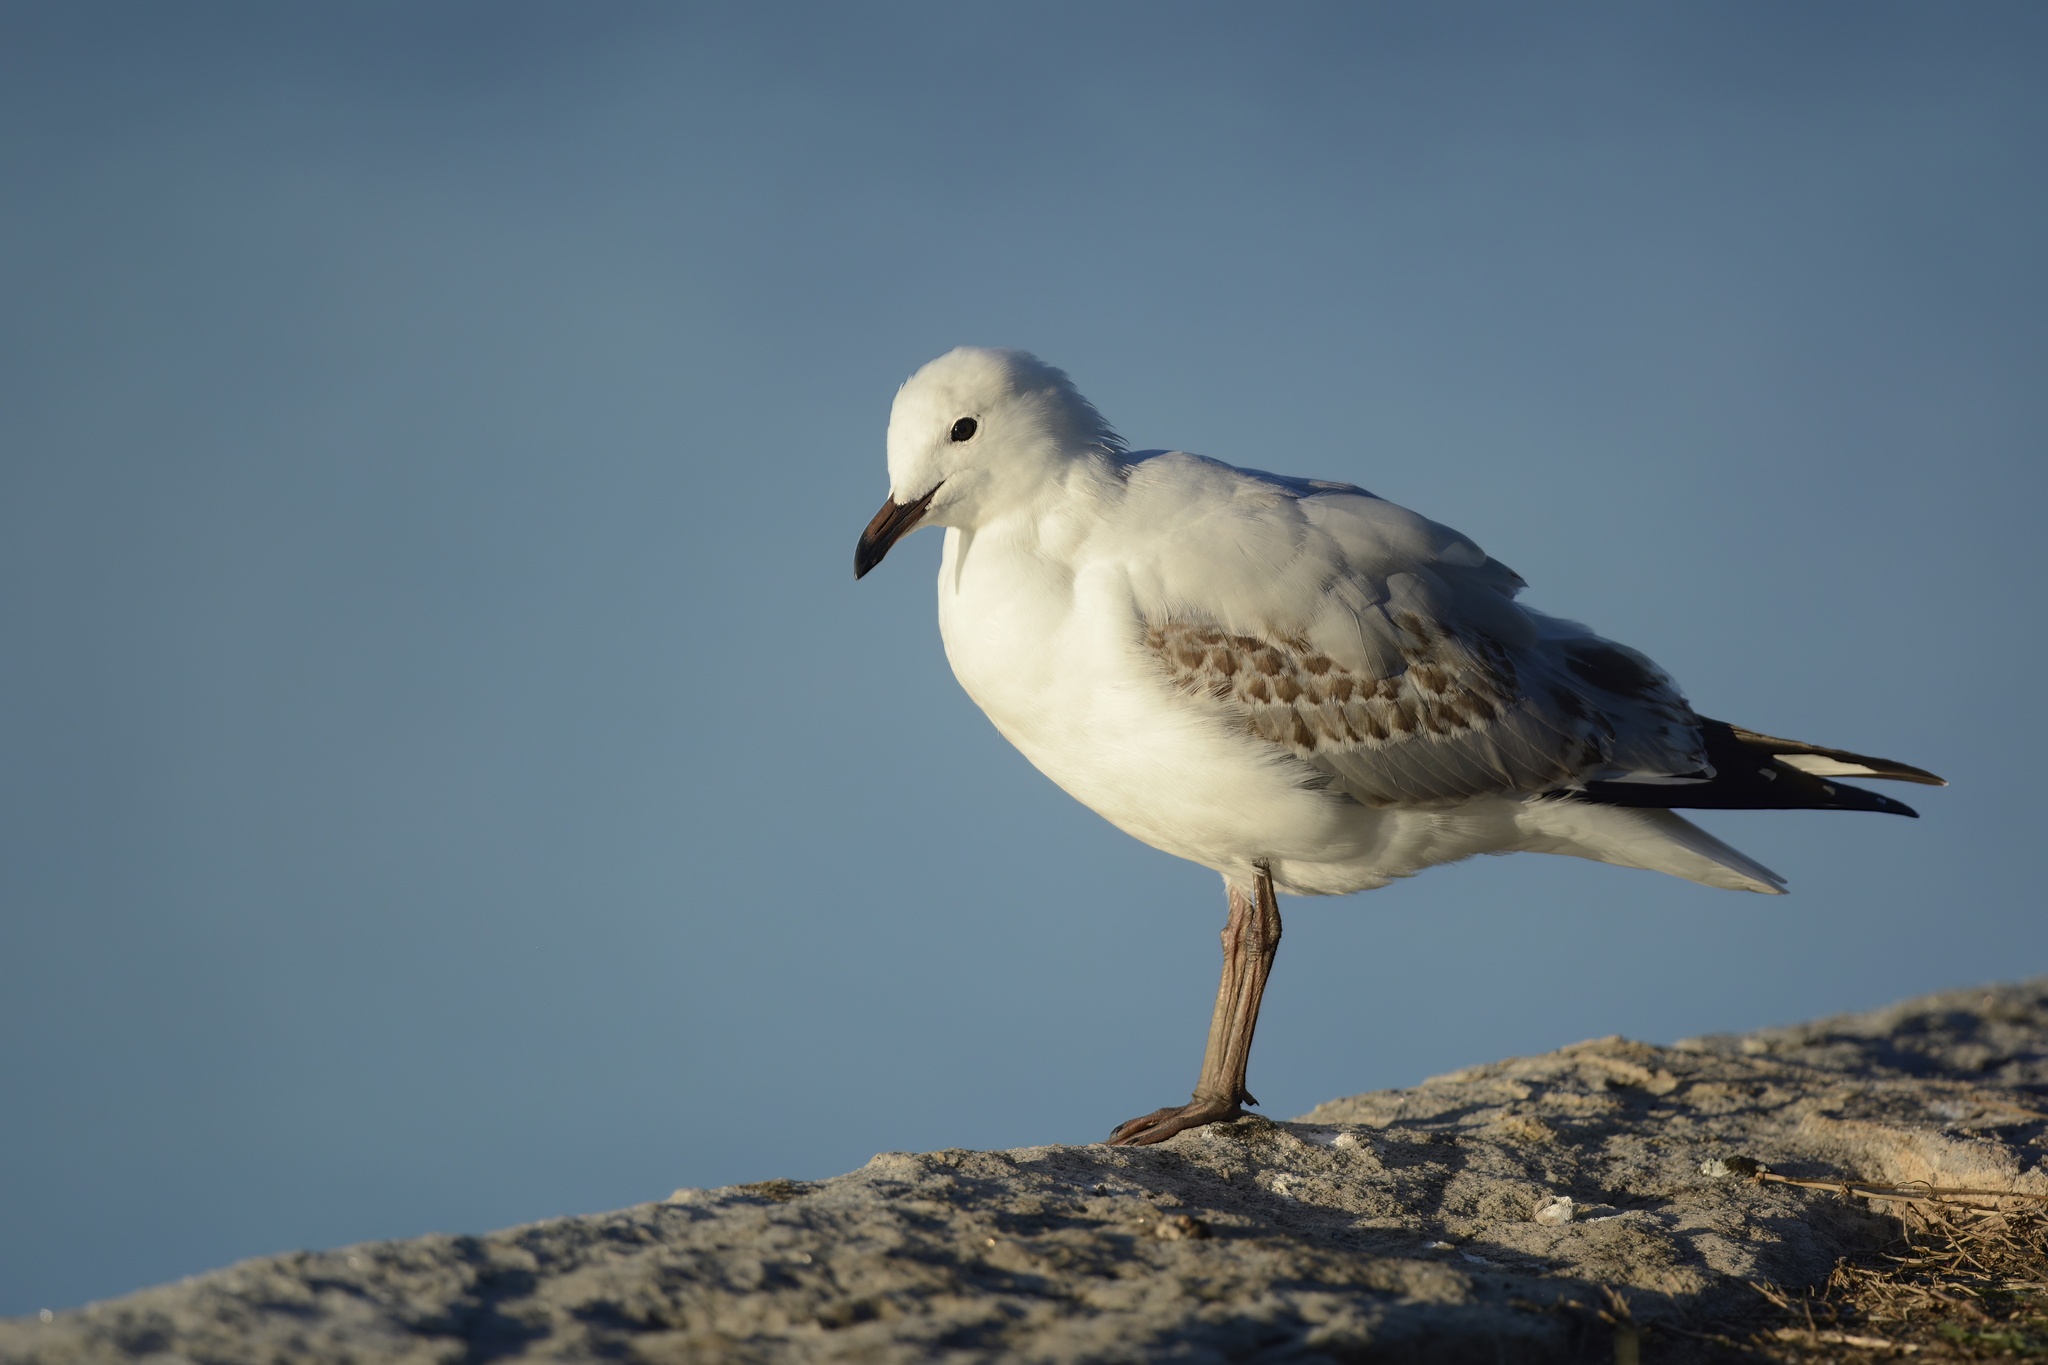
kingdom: Animalia
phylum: Chordata
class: Aves
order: Charadriiformes
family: Laridae
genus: Chroicocephalus
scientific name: Chroicocephalus novaehollandiae
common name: Silver gull
